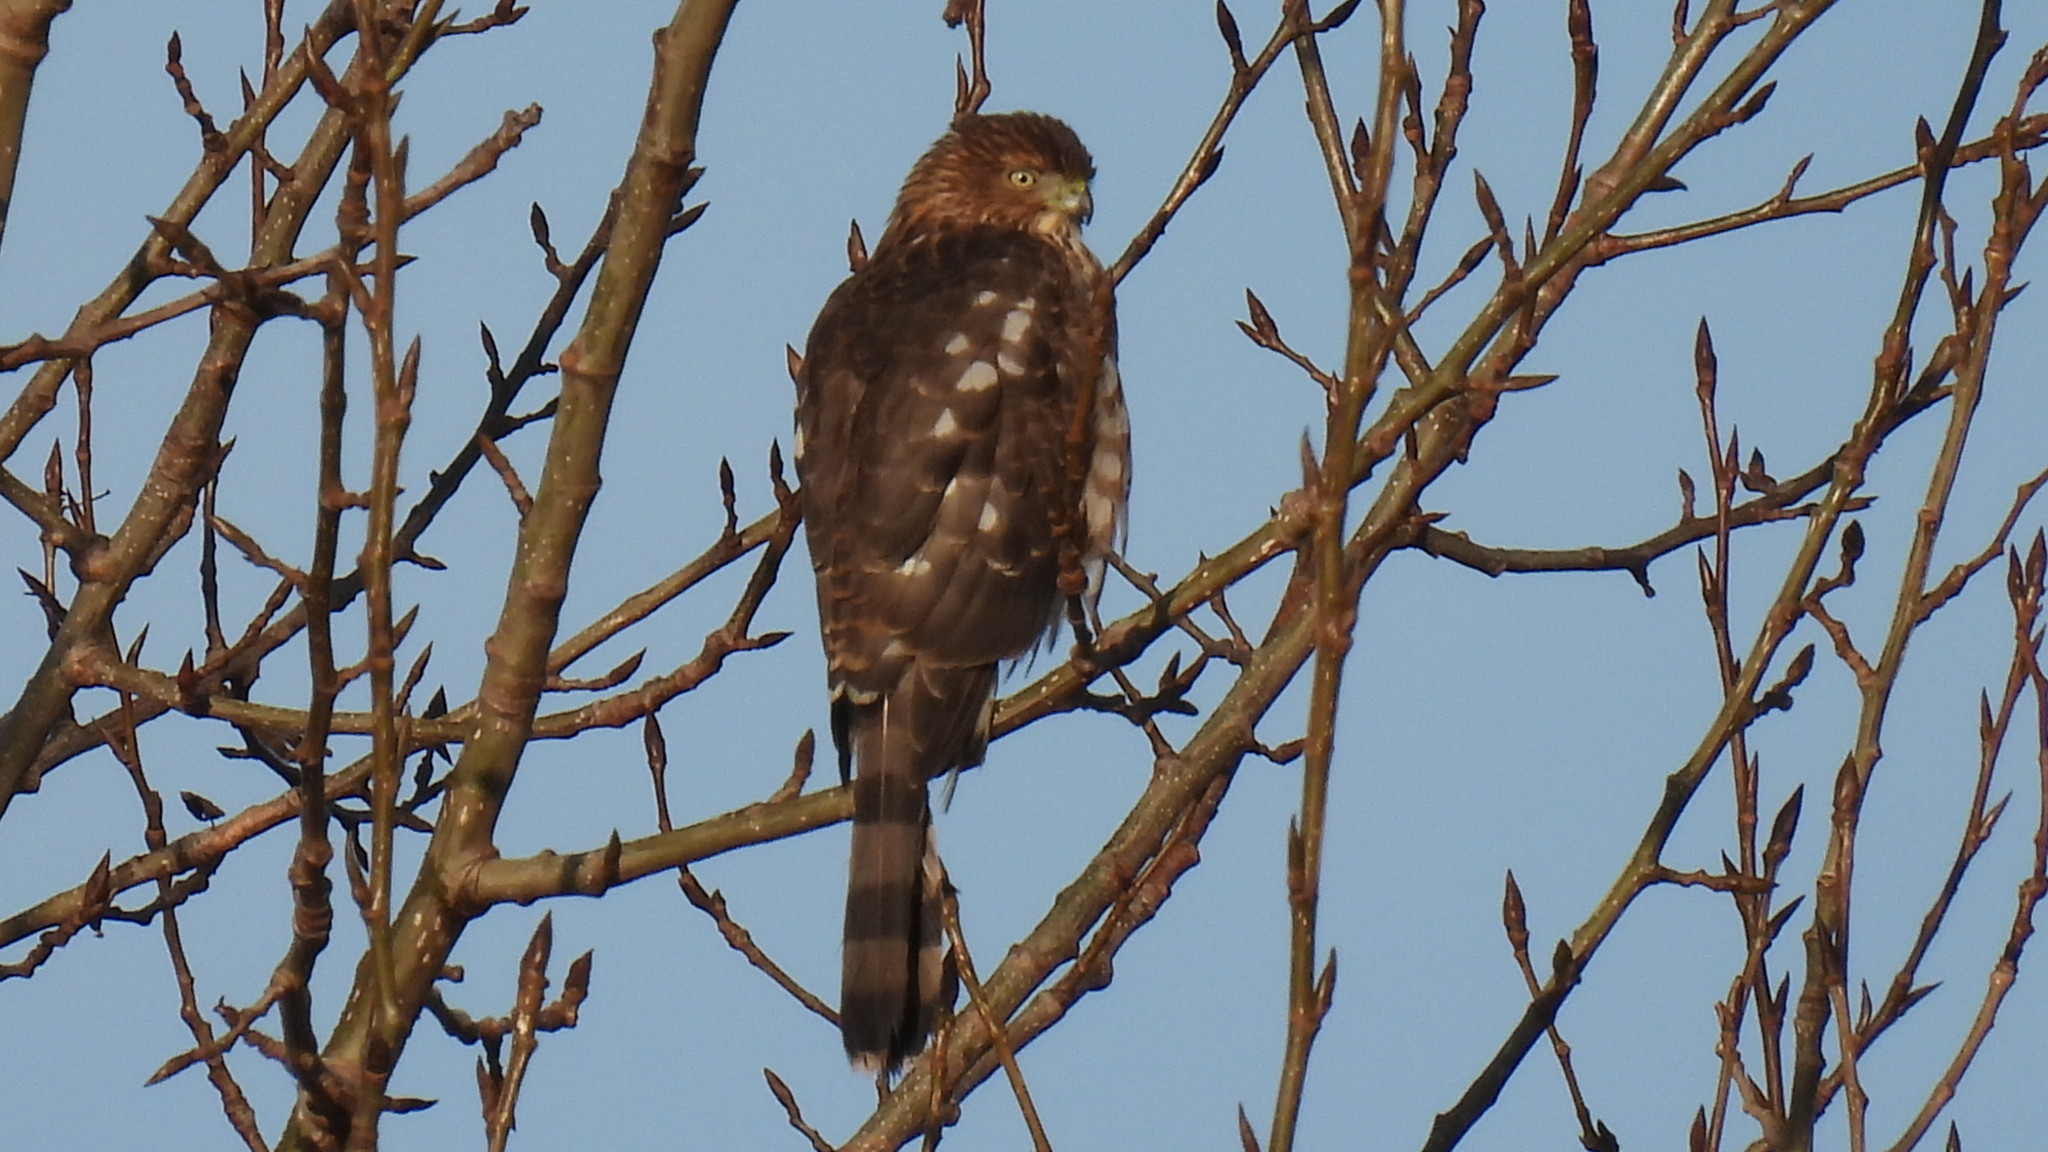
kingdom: Animalia
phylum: Chordata
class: Aves
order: Accipitriformes
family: Accipitridae
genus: Accipiter
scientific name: Accipiter cooperii
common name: Cooper's hawk
